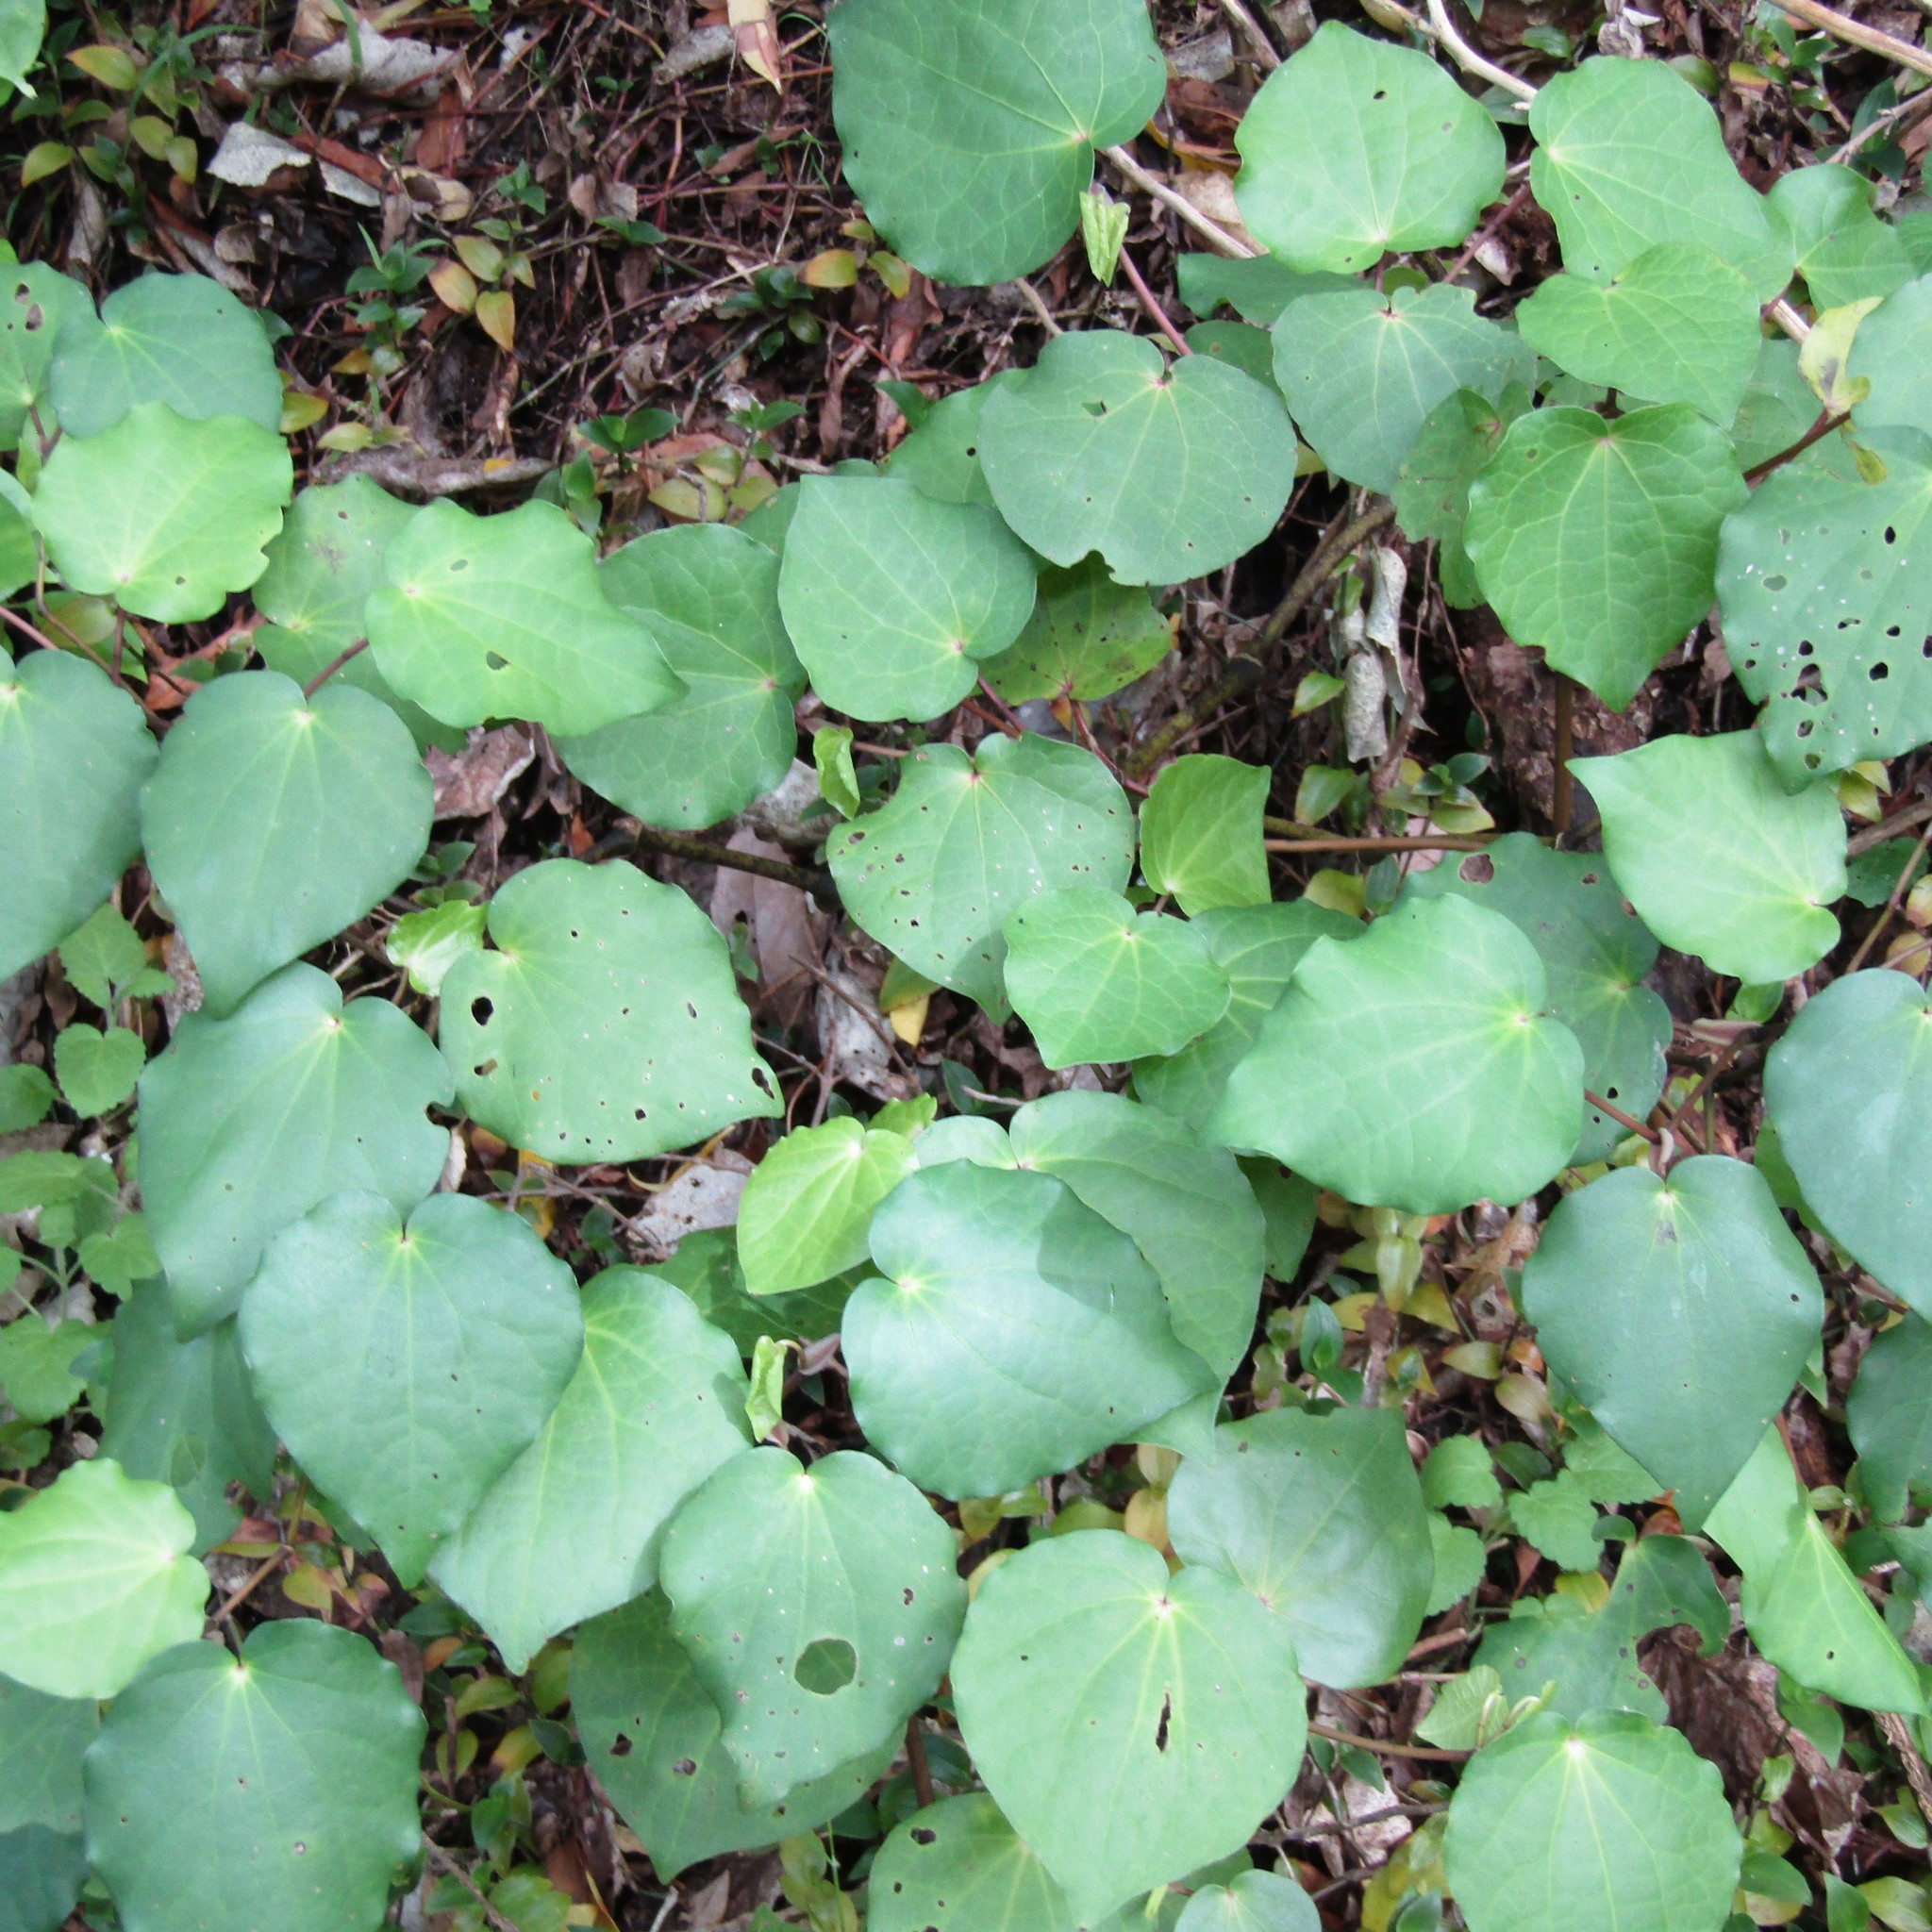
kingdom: Plantae
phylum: Tracheophyta
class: Magnoliopsida
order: Piperales
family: Piperaceae
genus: Macropiper
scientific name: Macropiper excelsum
